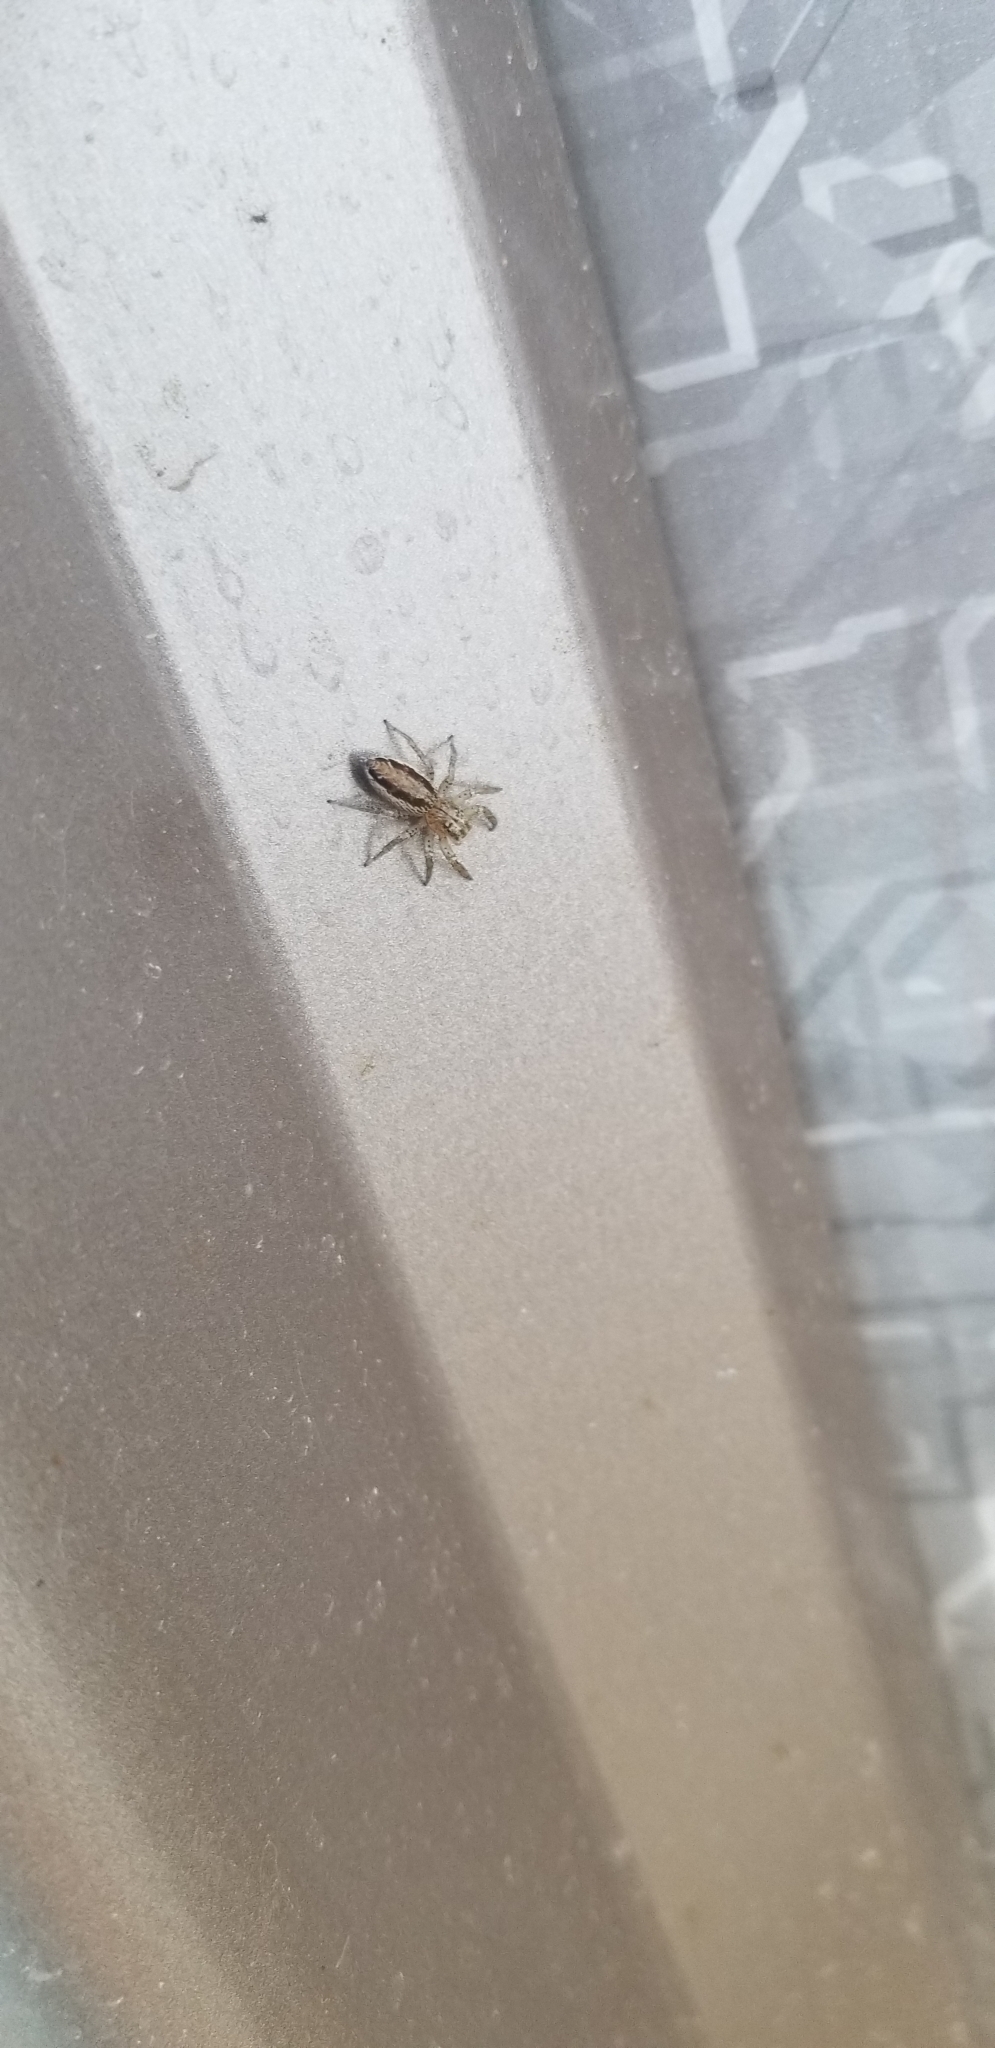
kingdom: Animalia
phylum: Arthropoda
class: Arachnida
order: Araneae
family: Salticidae
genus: Maevia
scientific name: Maevia inclemens
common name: Dimorphic jumper
